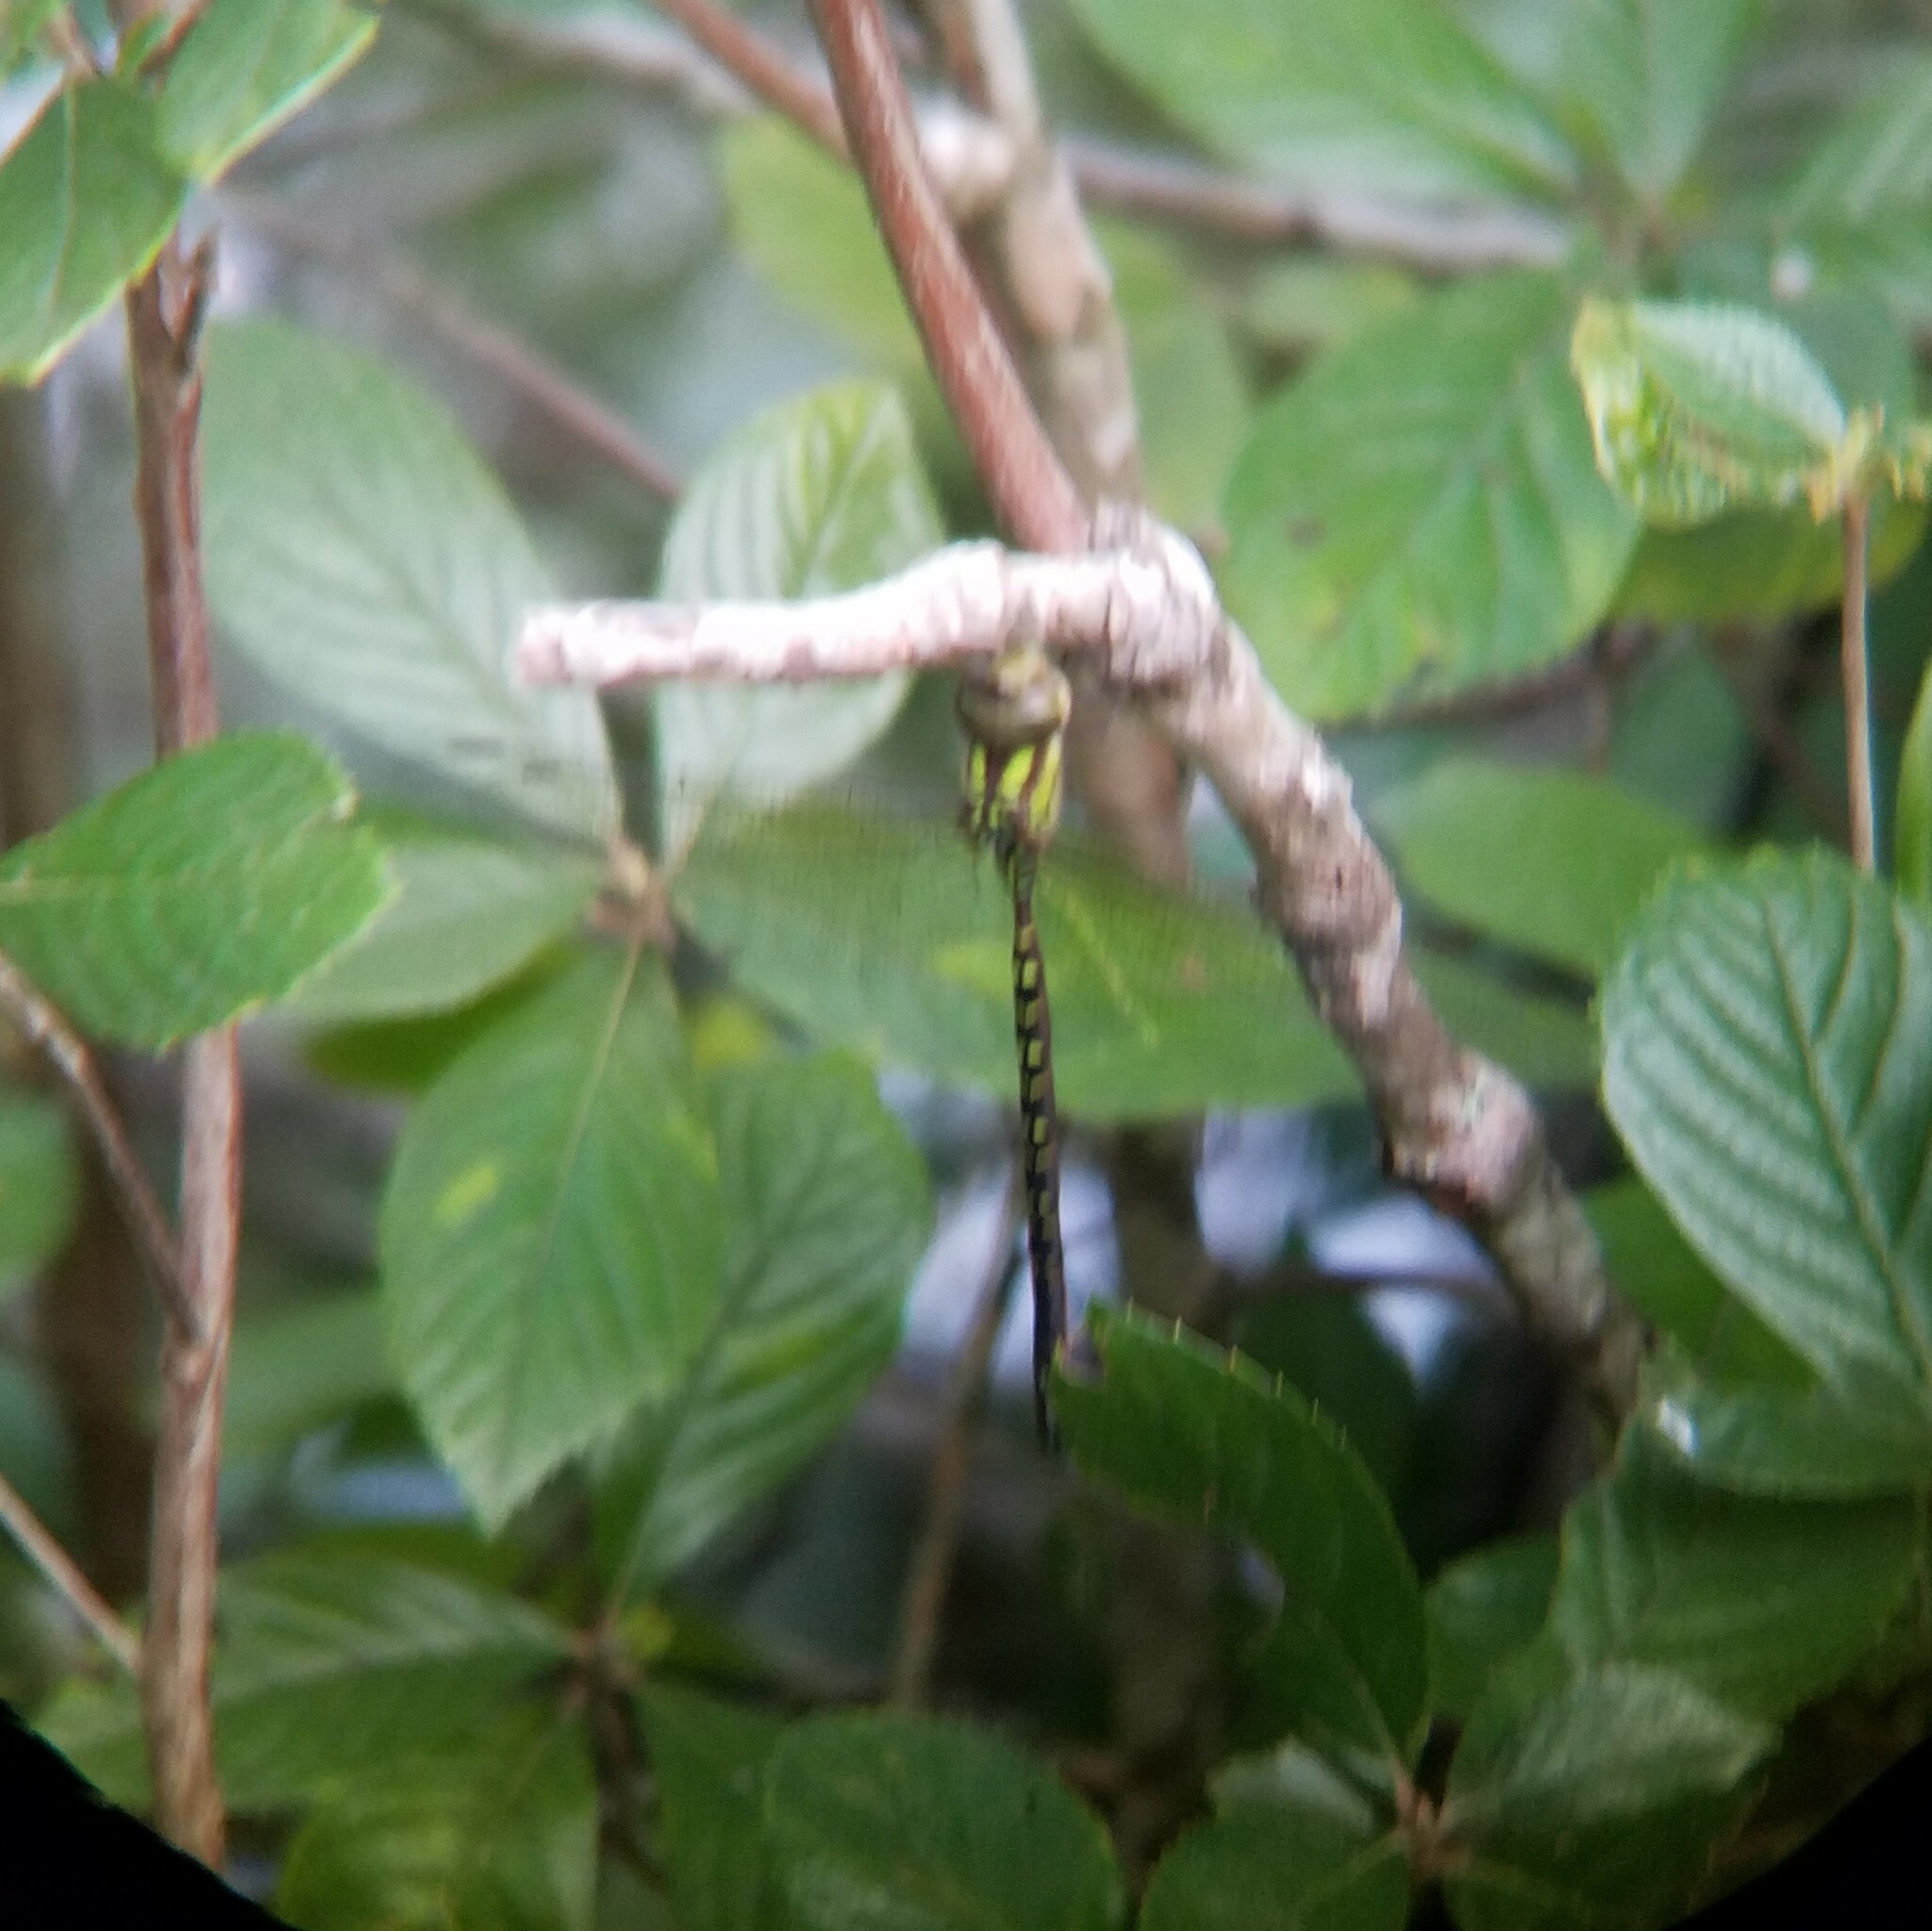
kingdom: Animalia
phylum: Arthropoda
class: Insecta
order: Odonata
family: Aeshnidae
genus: Triacanthagyna
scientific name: Triacanthagyna trifida
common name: Phantom darner
